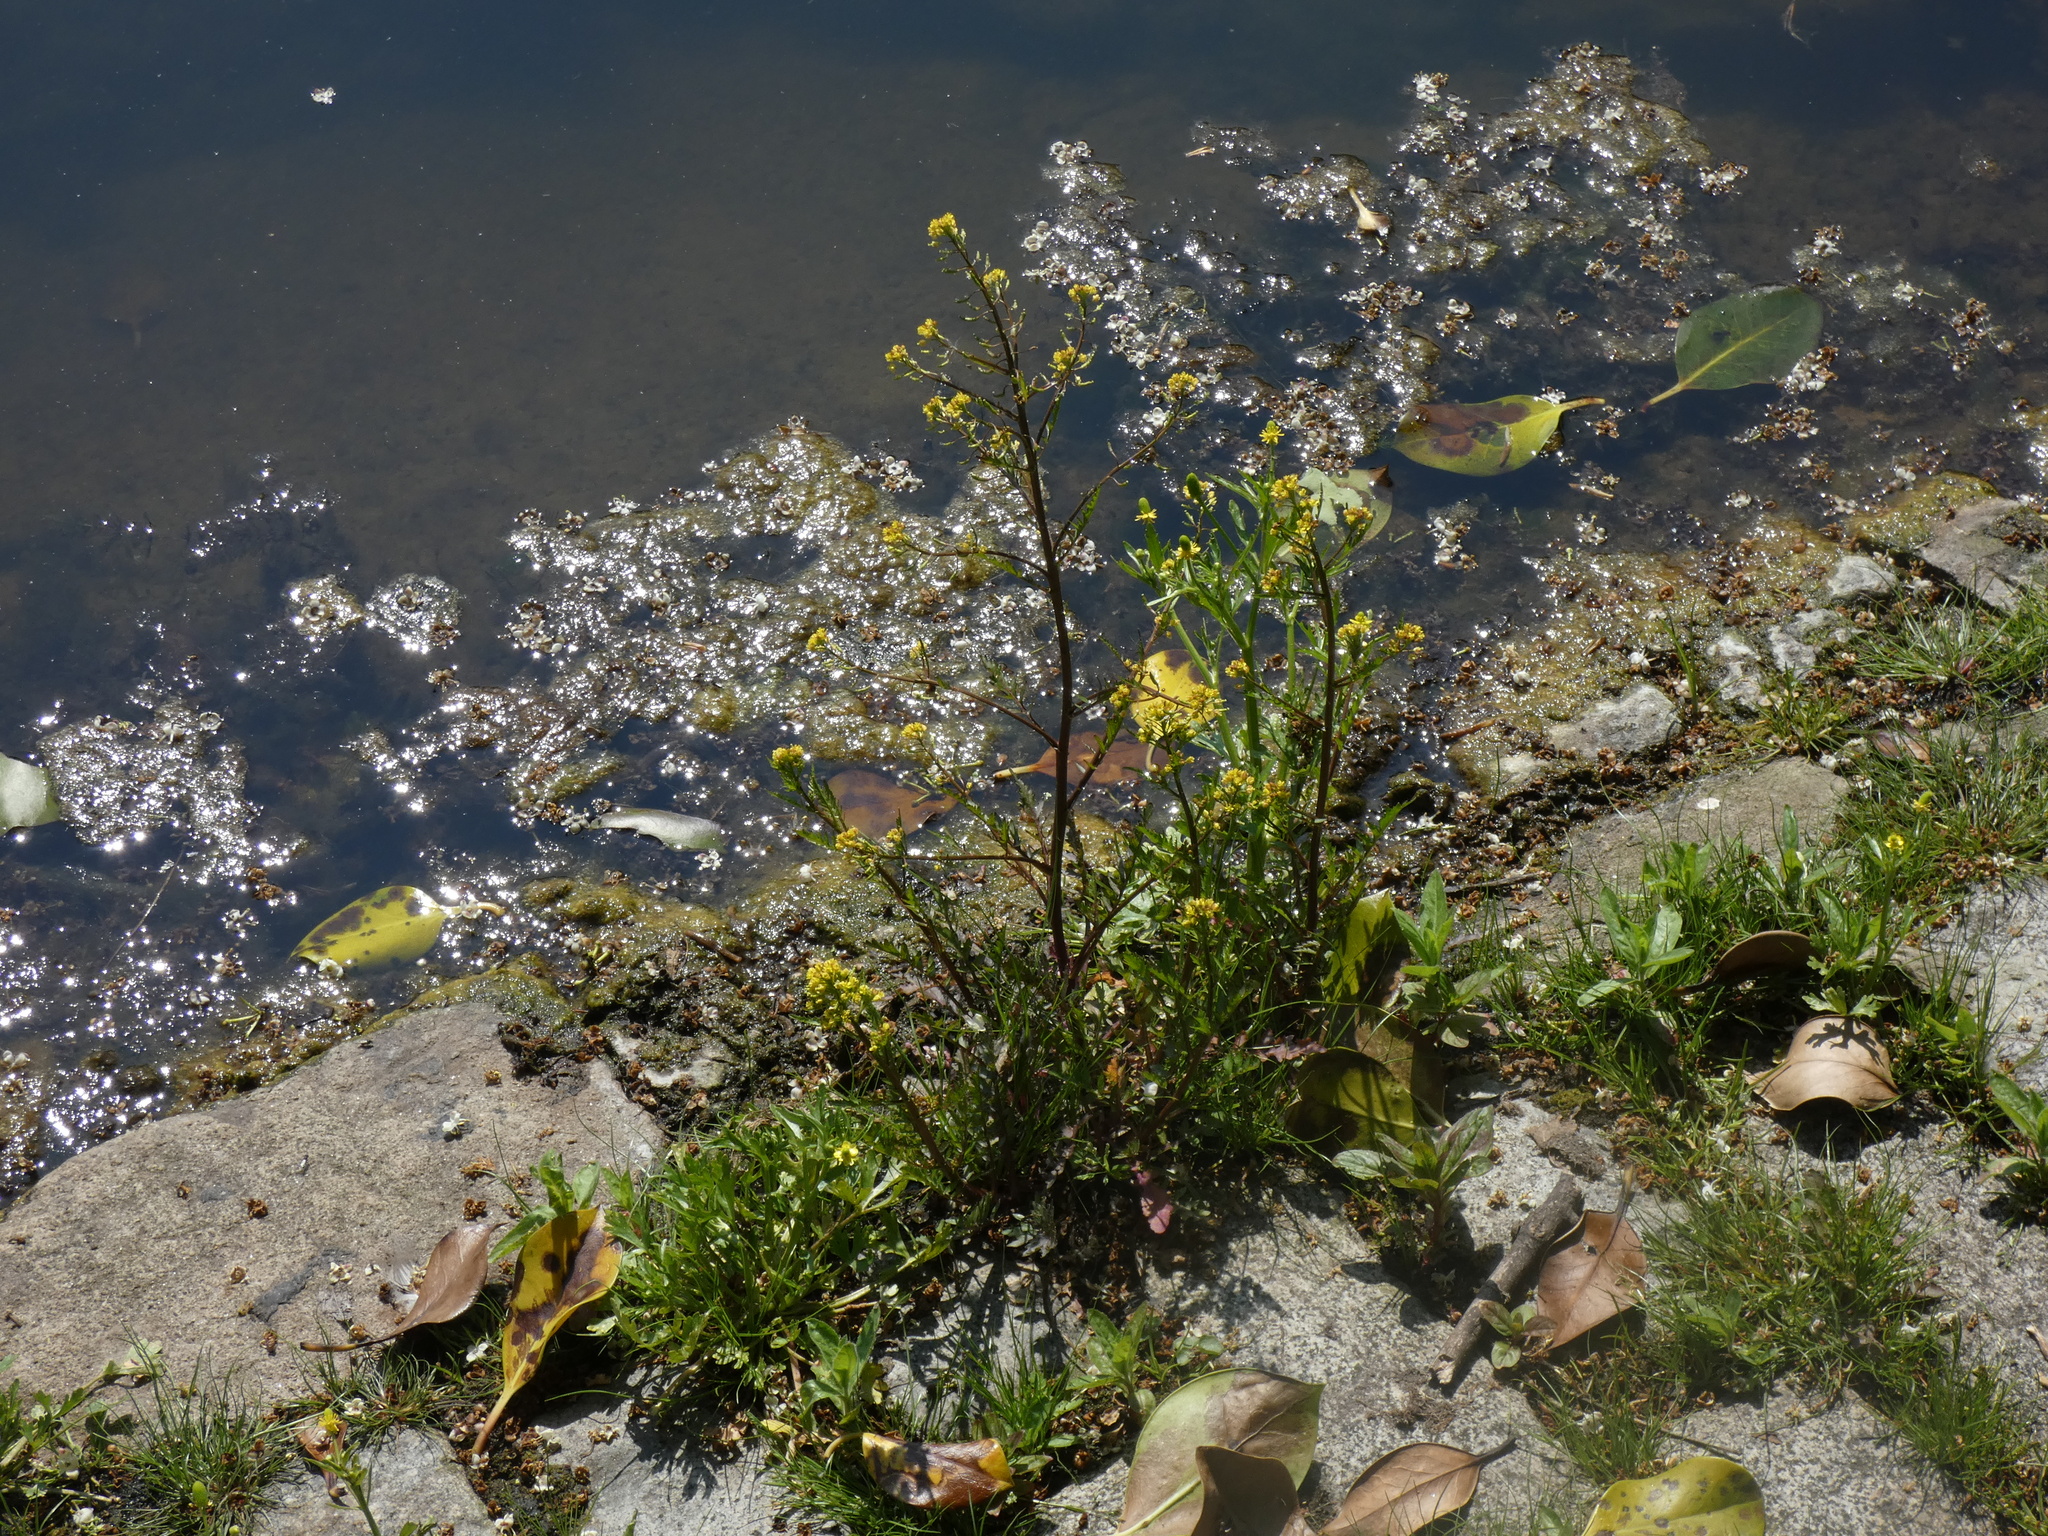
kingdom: Plantae
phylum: Tracheophyta
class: Magnoliopsida
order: Brassicales
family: Brassicaceae
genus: Rorippa
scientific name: Rorippa palustris
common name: Marsh yellow-cress
